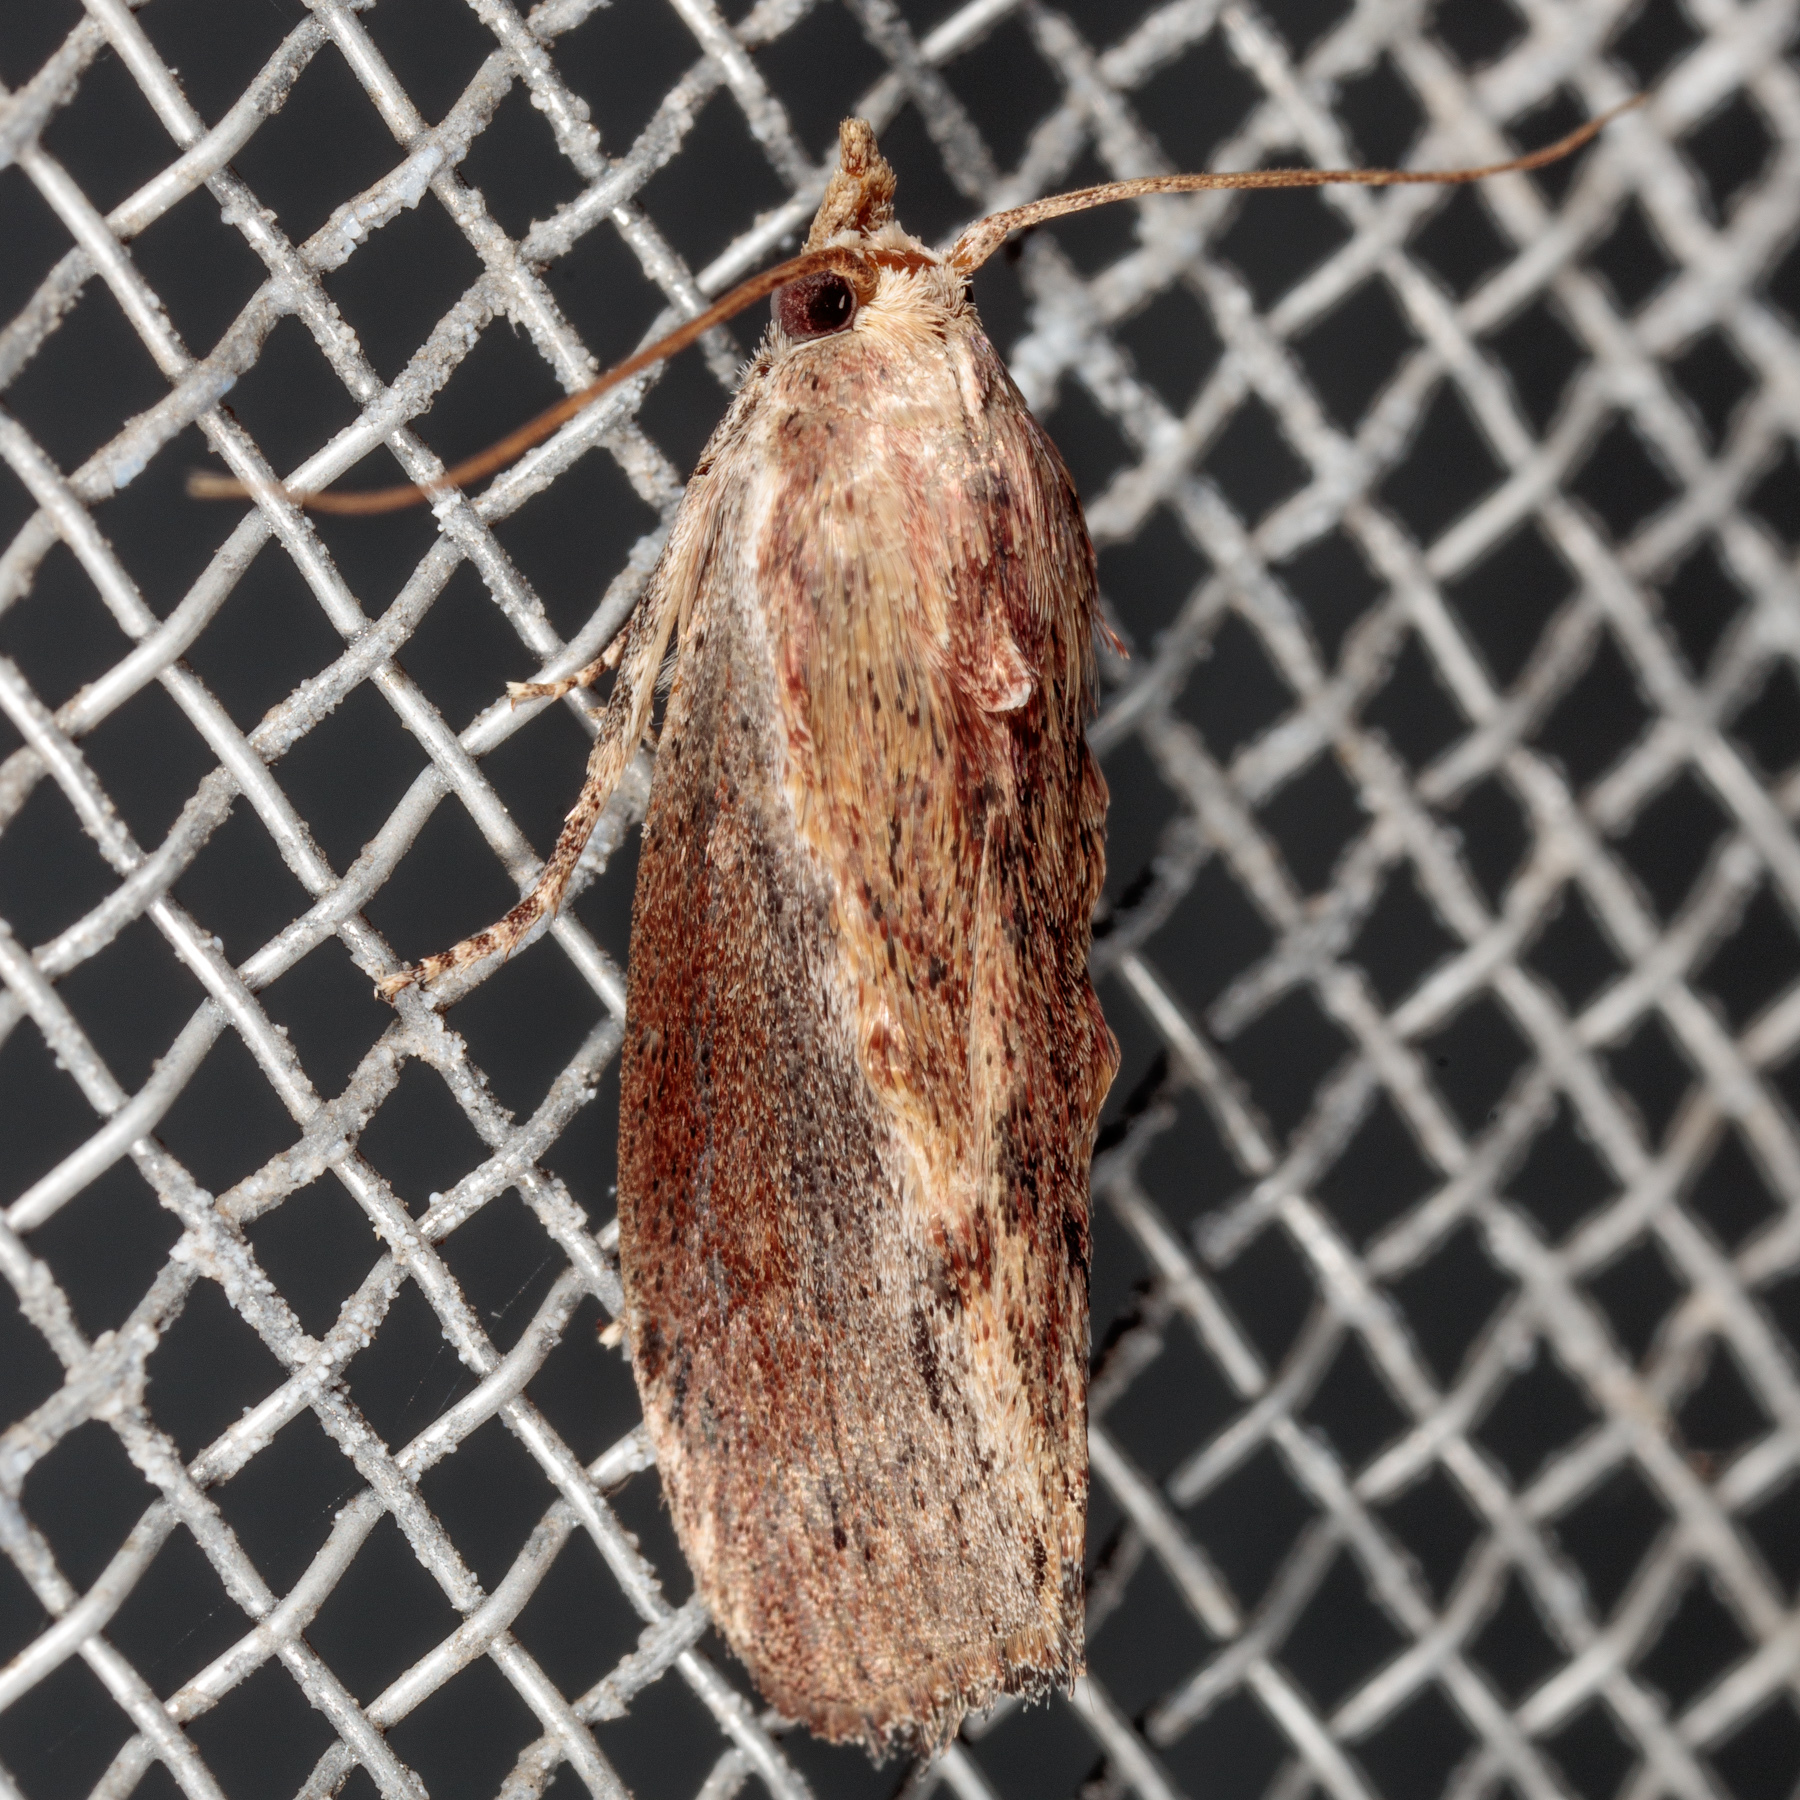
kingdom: Animalia
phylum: Arthropoda
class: Insecta
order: Lepidoptera
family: Pyralidae
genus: Galleria
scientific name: Galleria mellonella
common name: Greater wax moth
